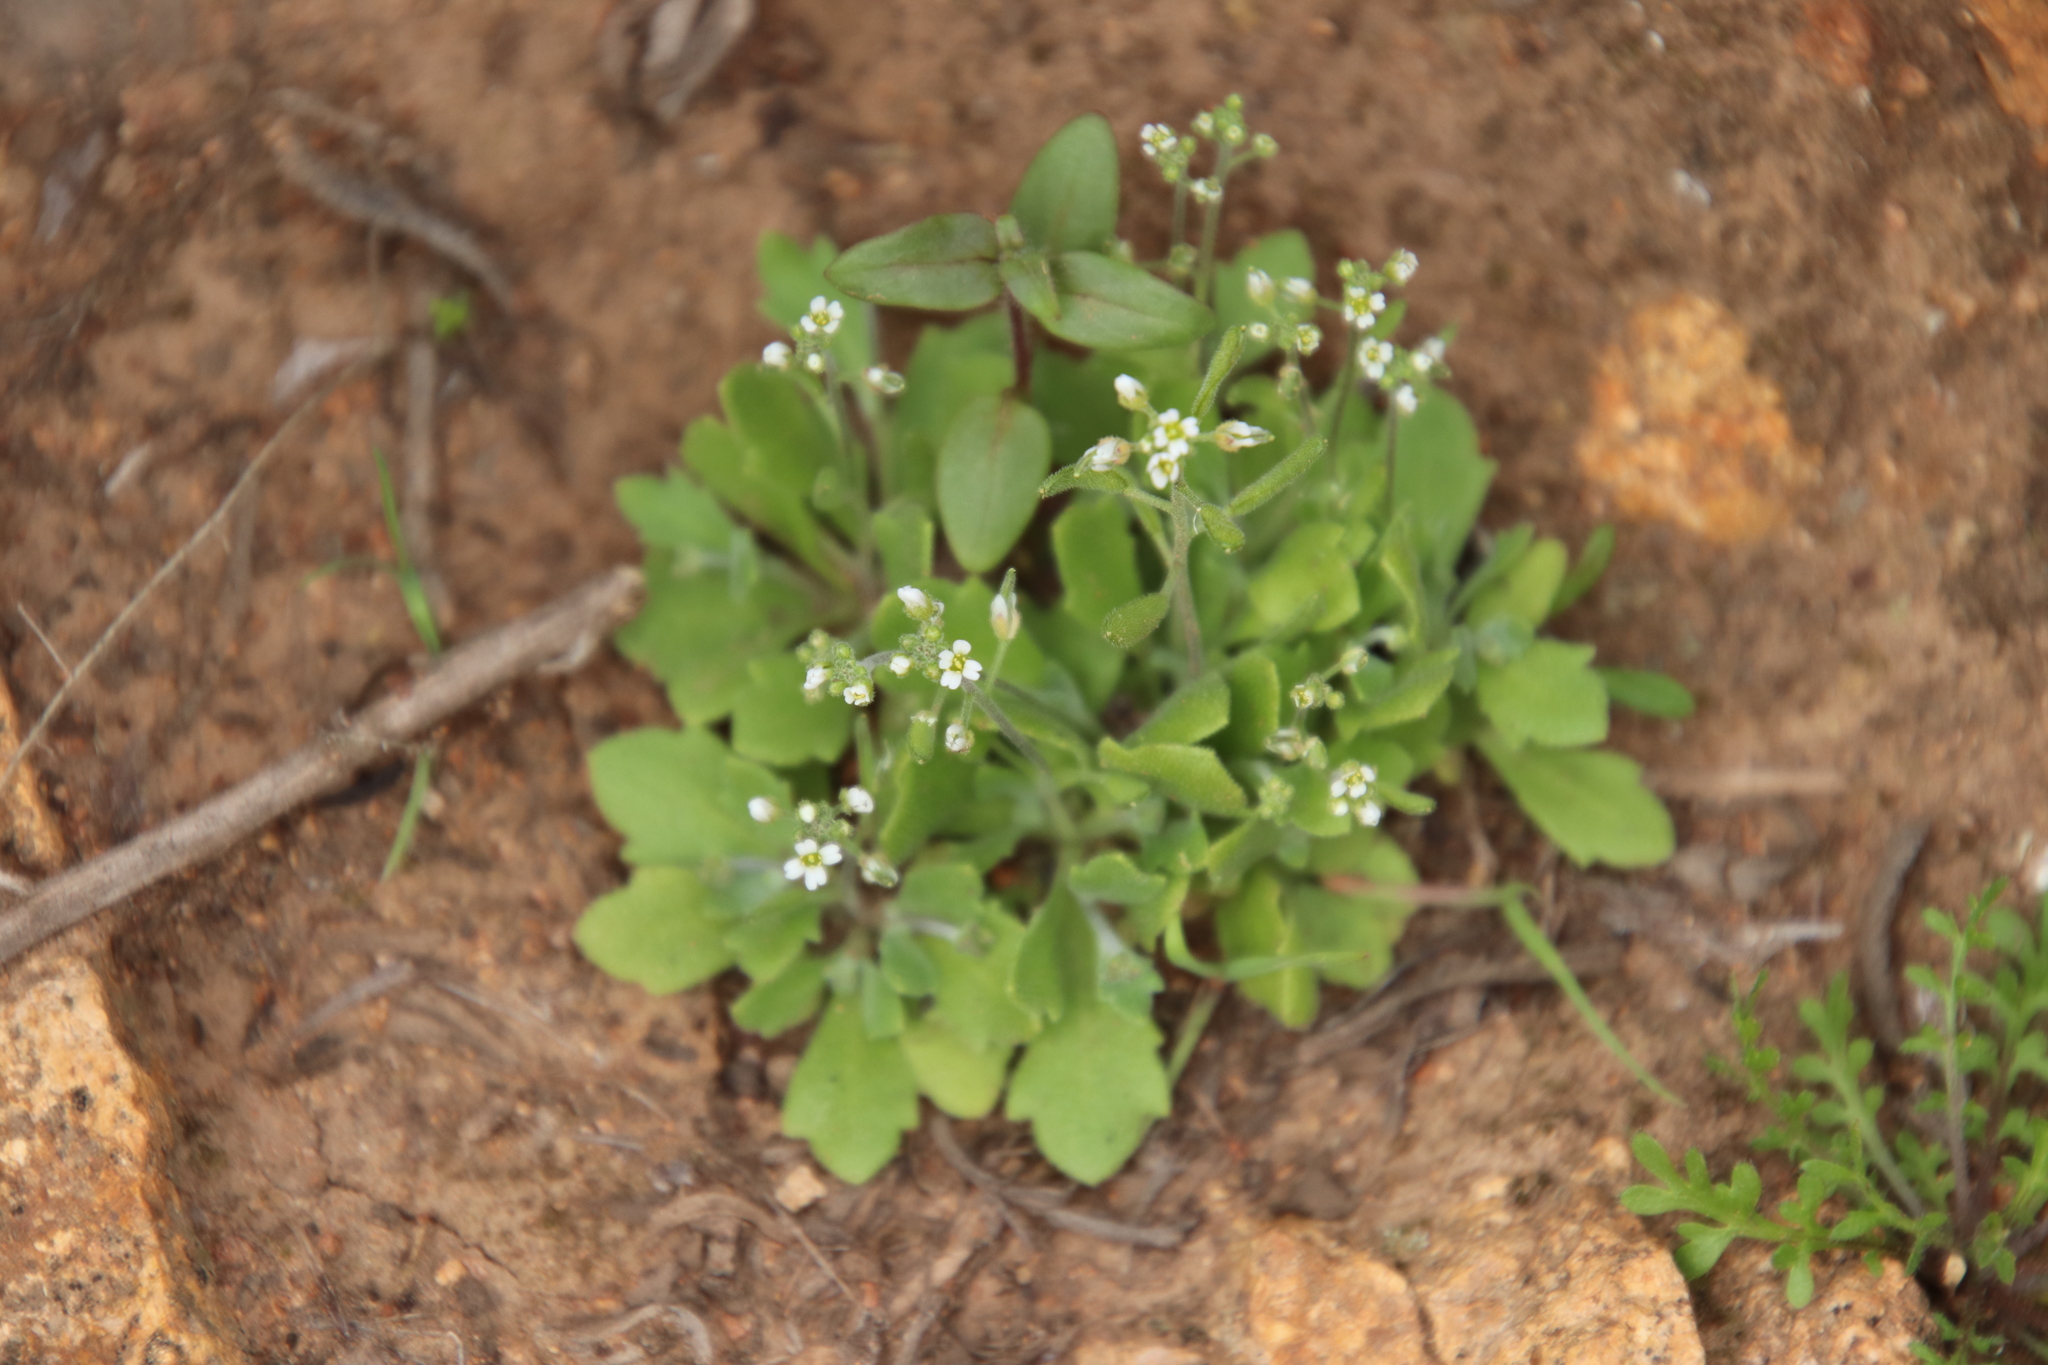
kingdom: Plantae
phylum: Tracheophyta
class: Magnoliopsida
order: Brassicales
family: Brassicaceae
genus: Tomostima
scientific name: Tomostima cuneifolia
